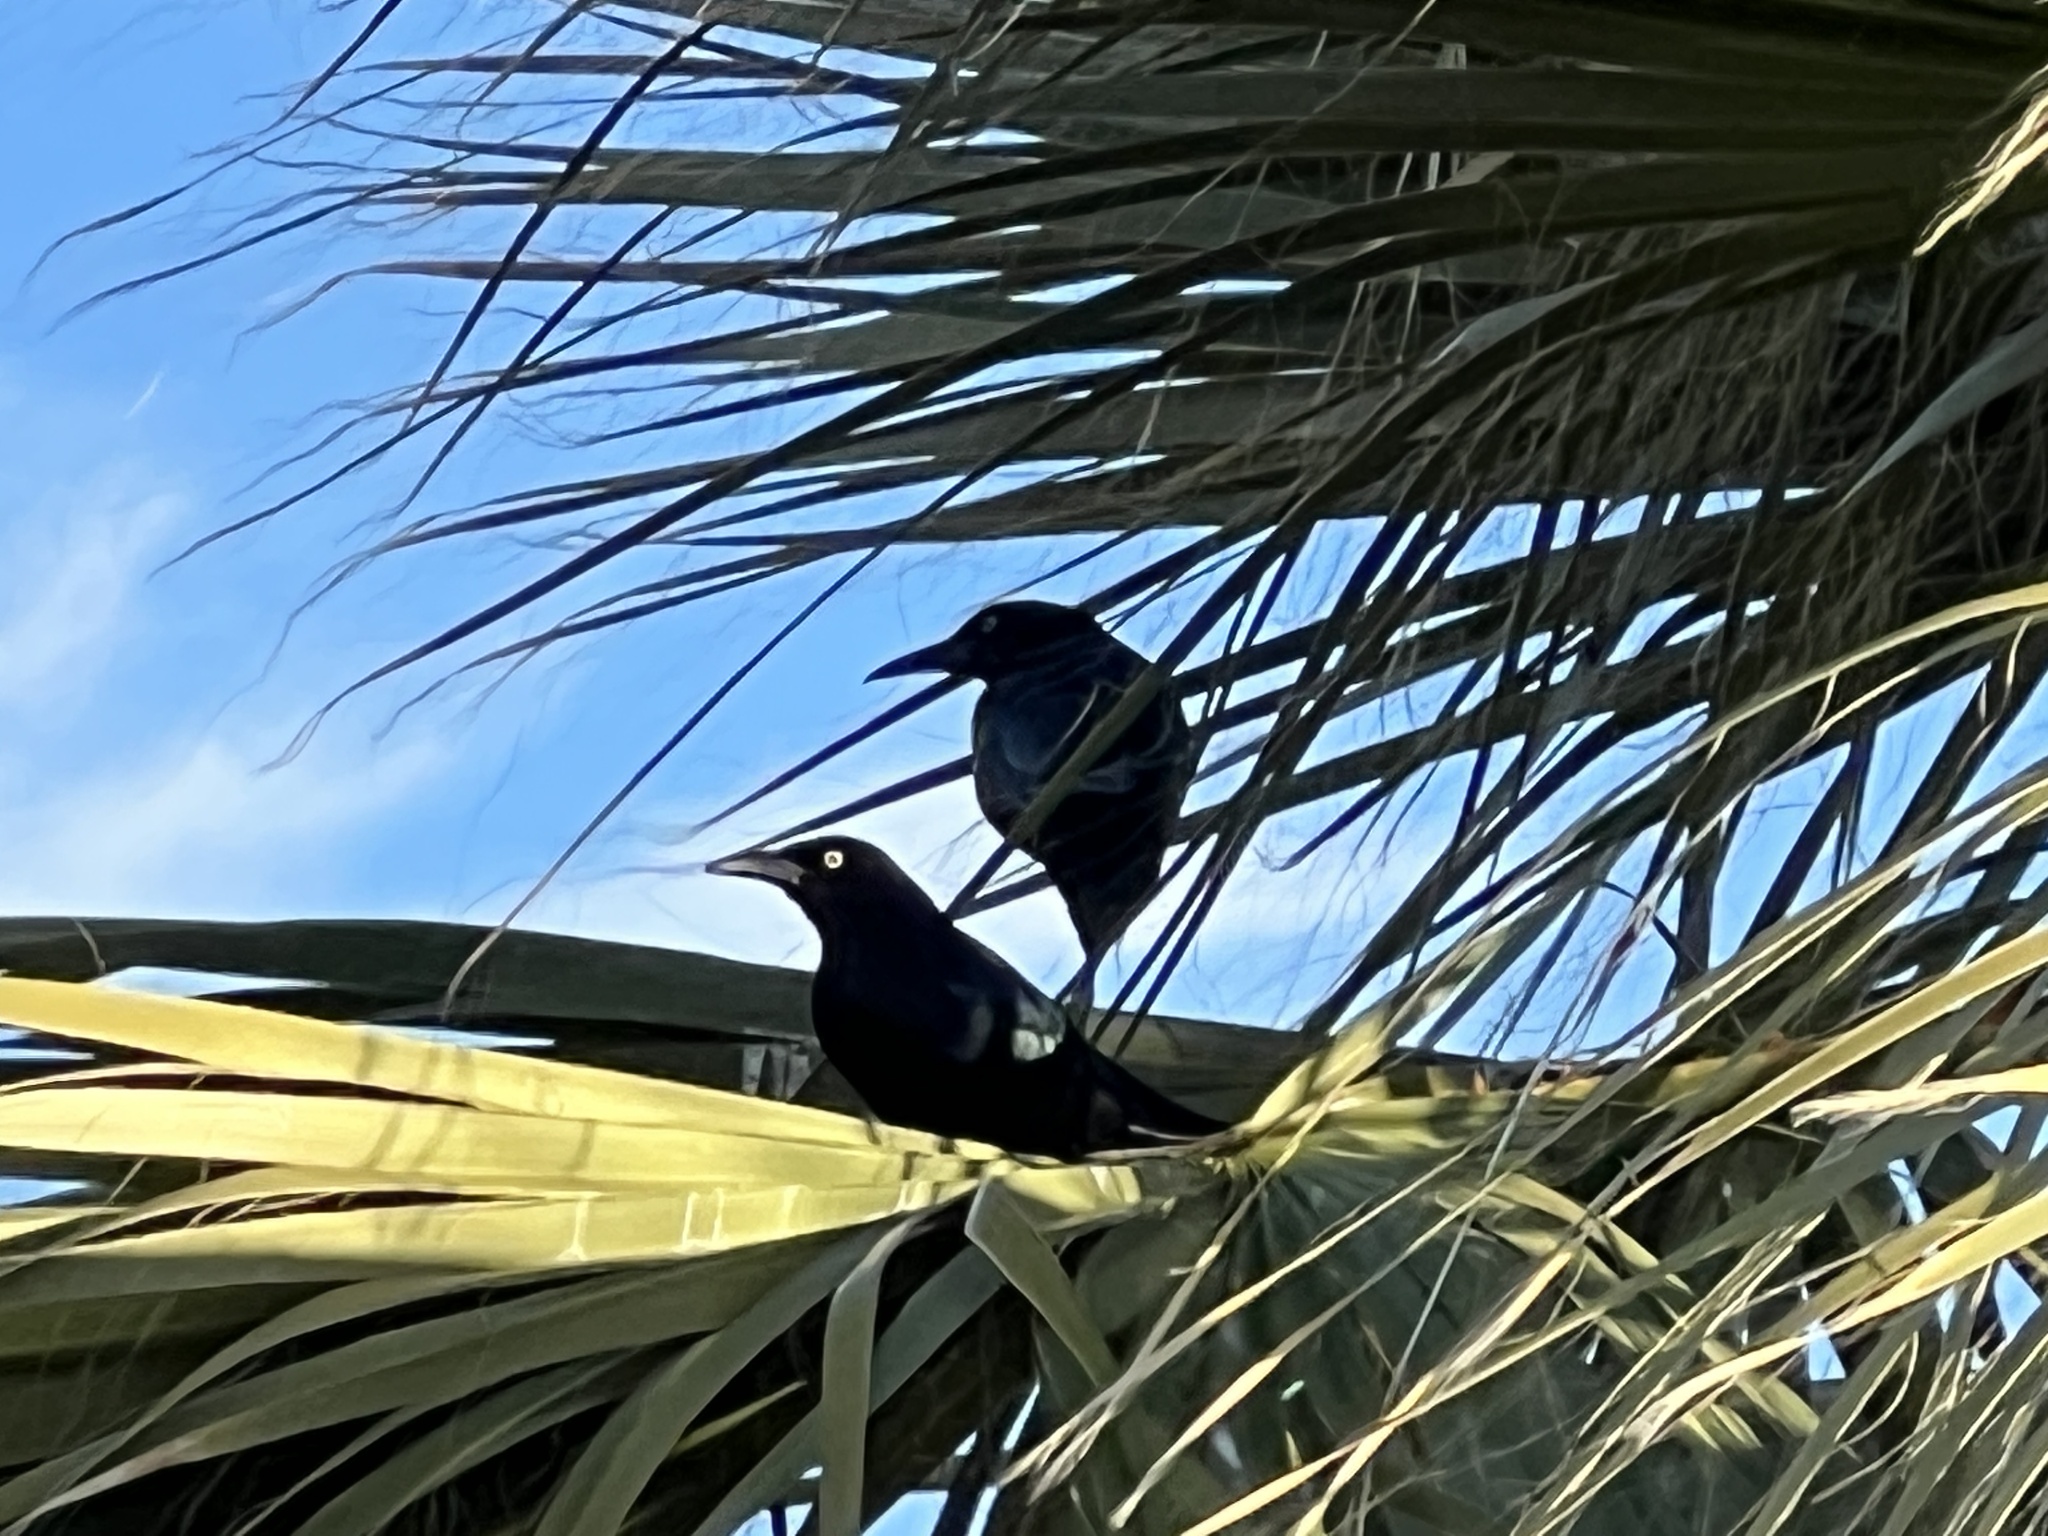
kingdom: Animalia
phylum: Chordata
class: Aves
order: Passeriformes
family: Icteridae
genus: Quiscalus
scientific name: Quiscalus mexicanus
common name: Great-tailed grackle
